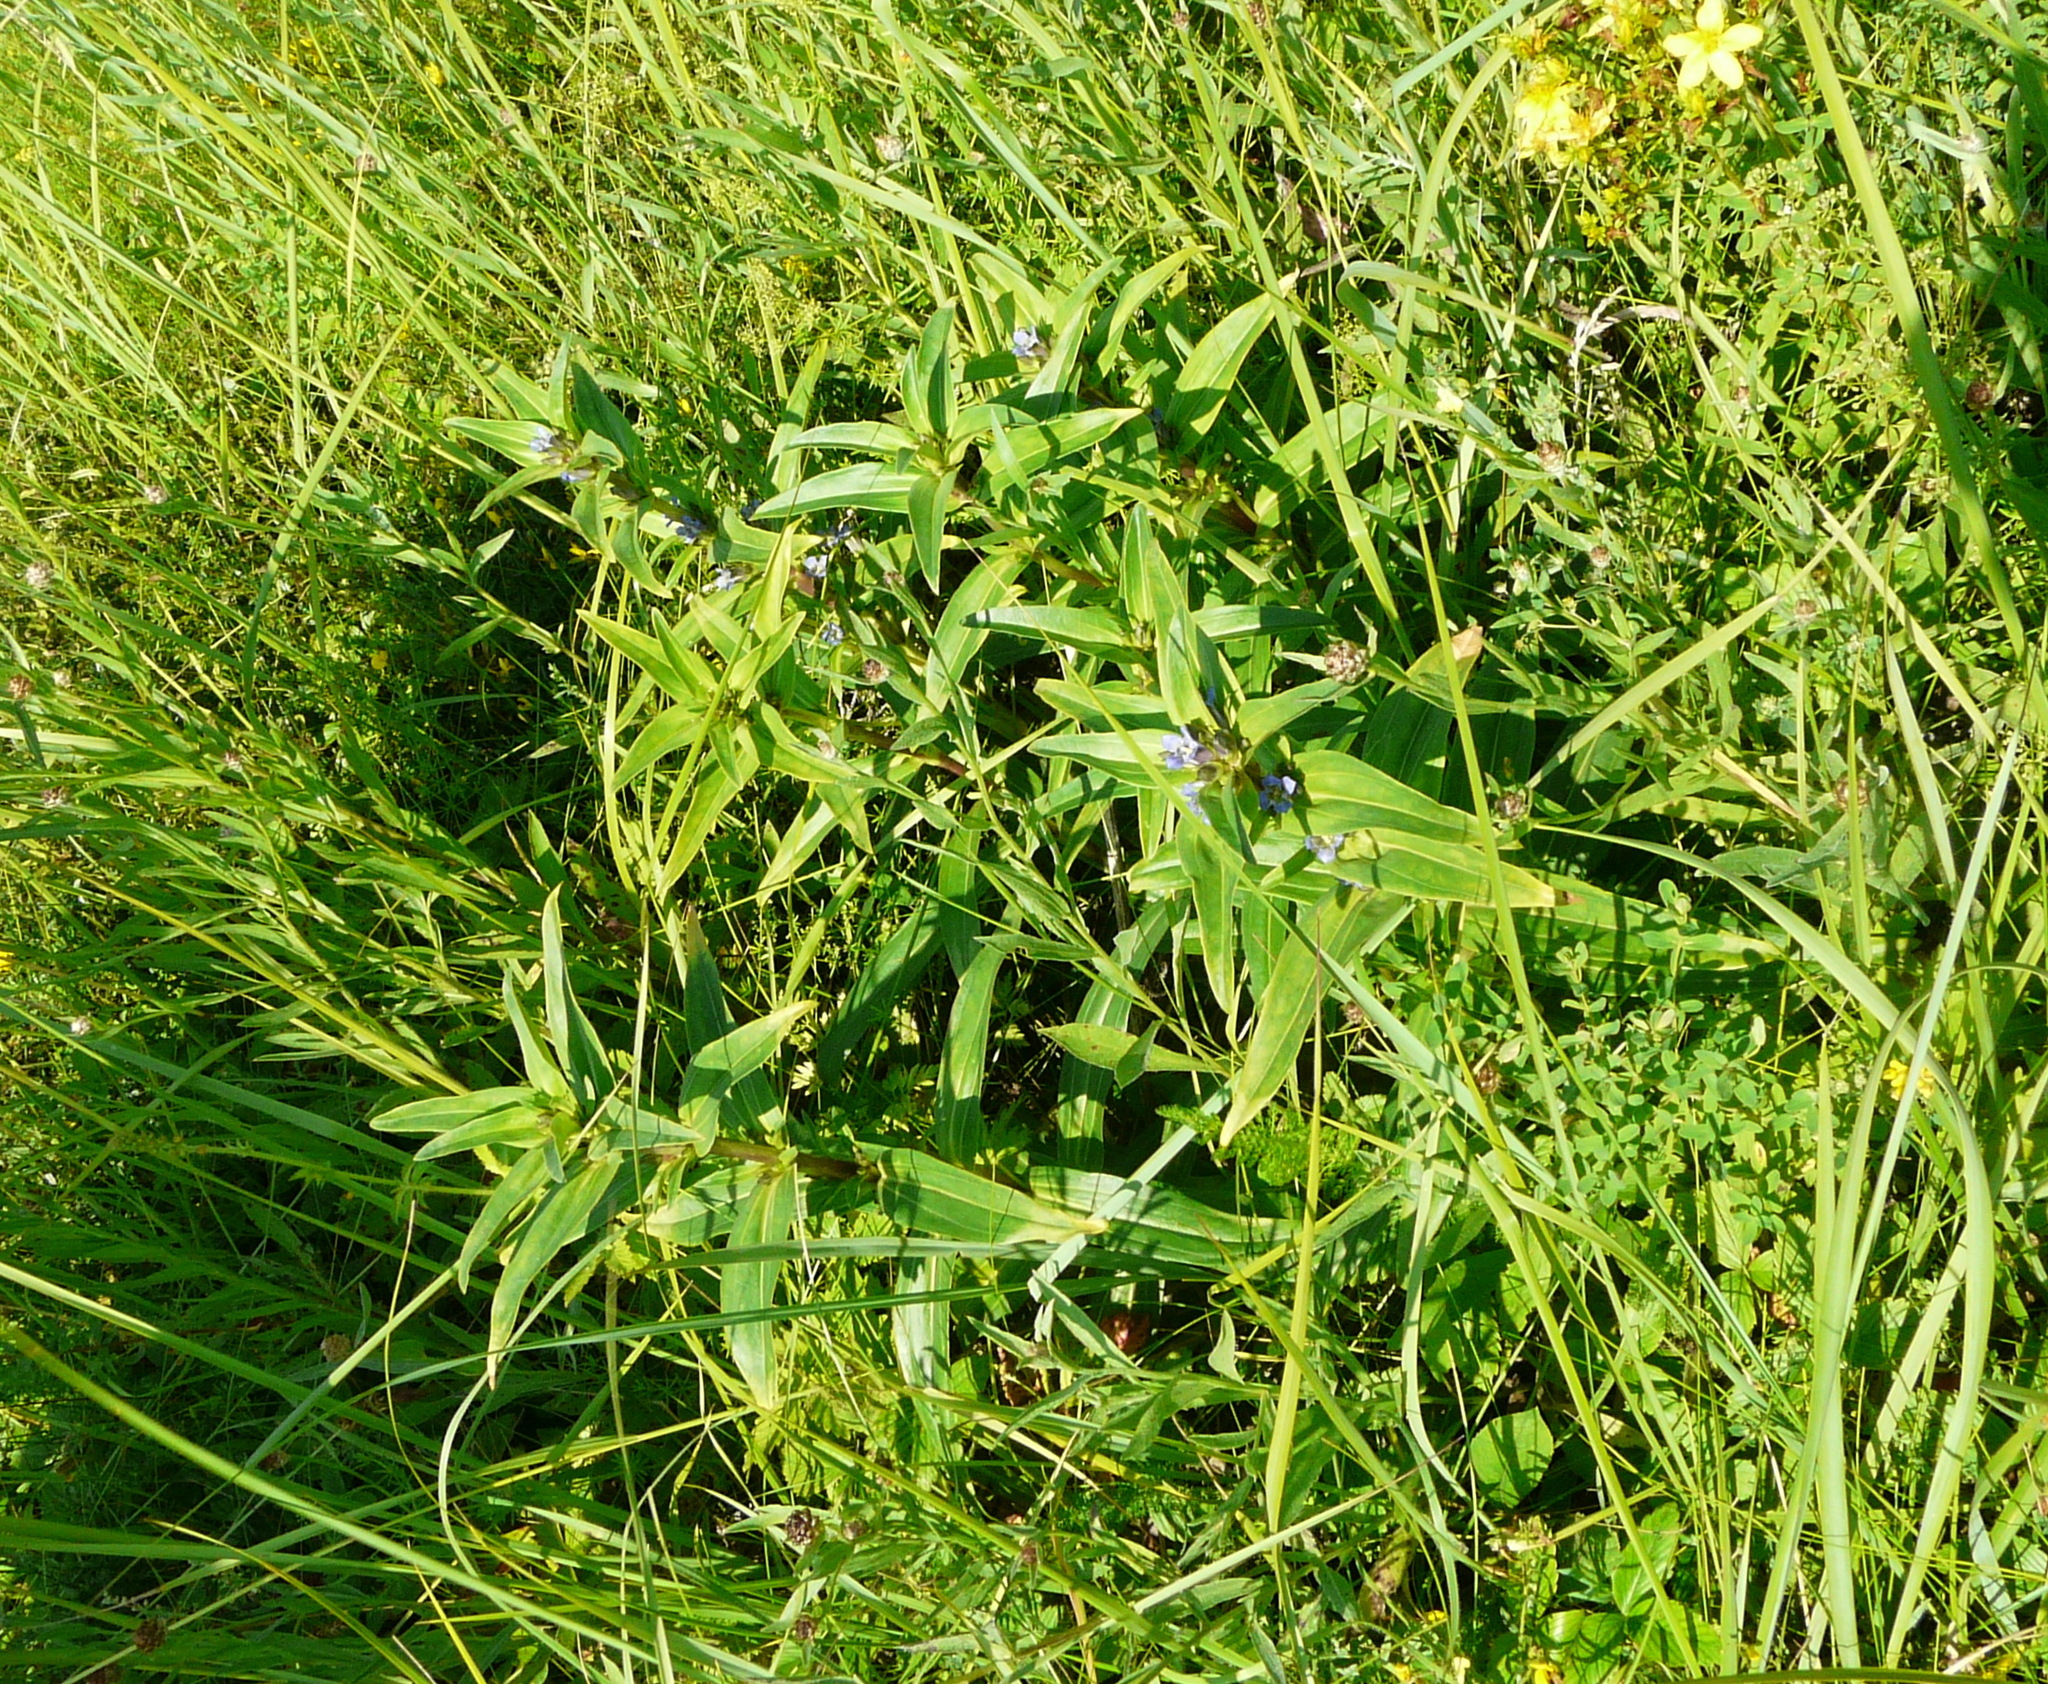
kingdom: Plantae
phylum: Tracheophyta
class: Magnoliopsida
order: Gentianales
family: Gentianaceae
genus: Gentiana
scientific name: Gentiana cruciata
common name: Cross gentian
